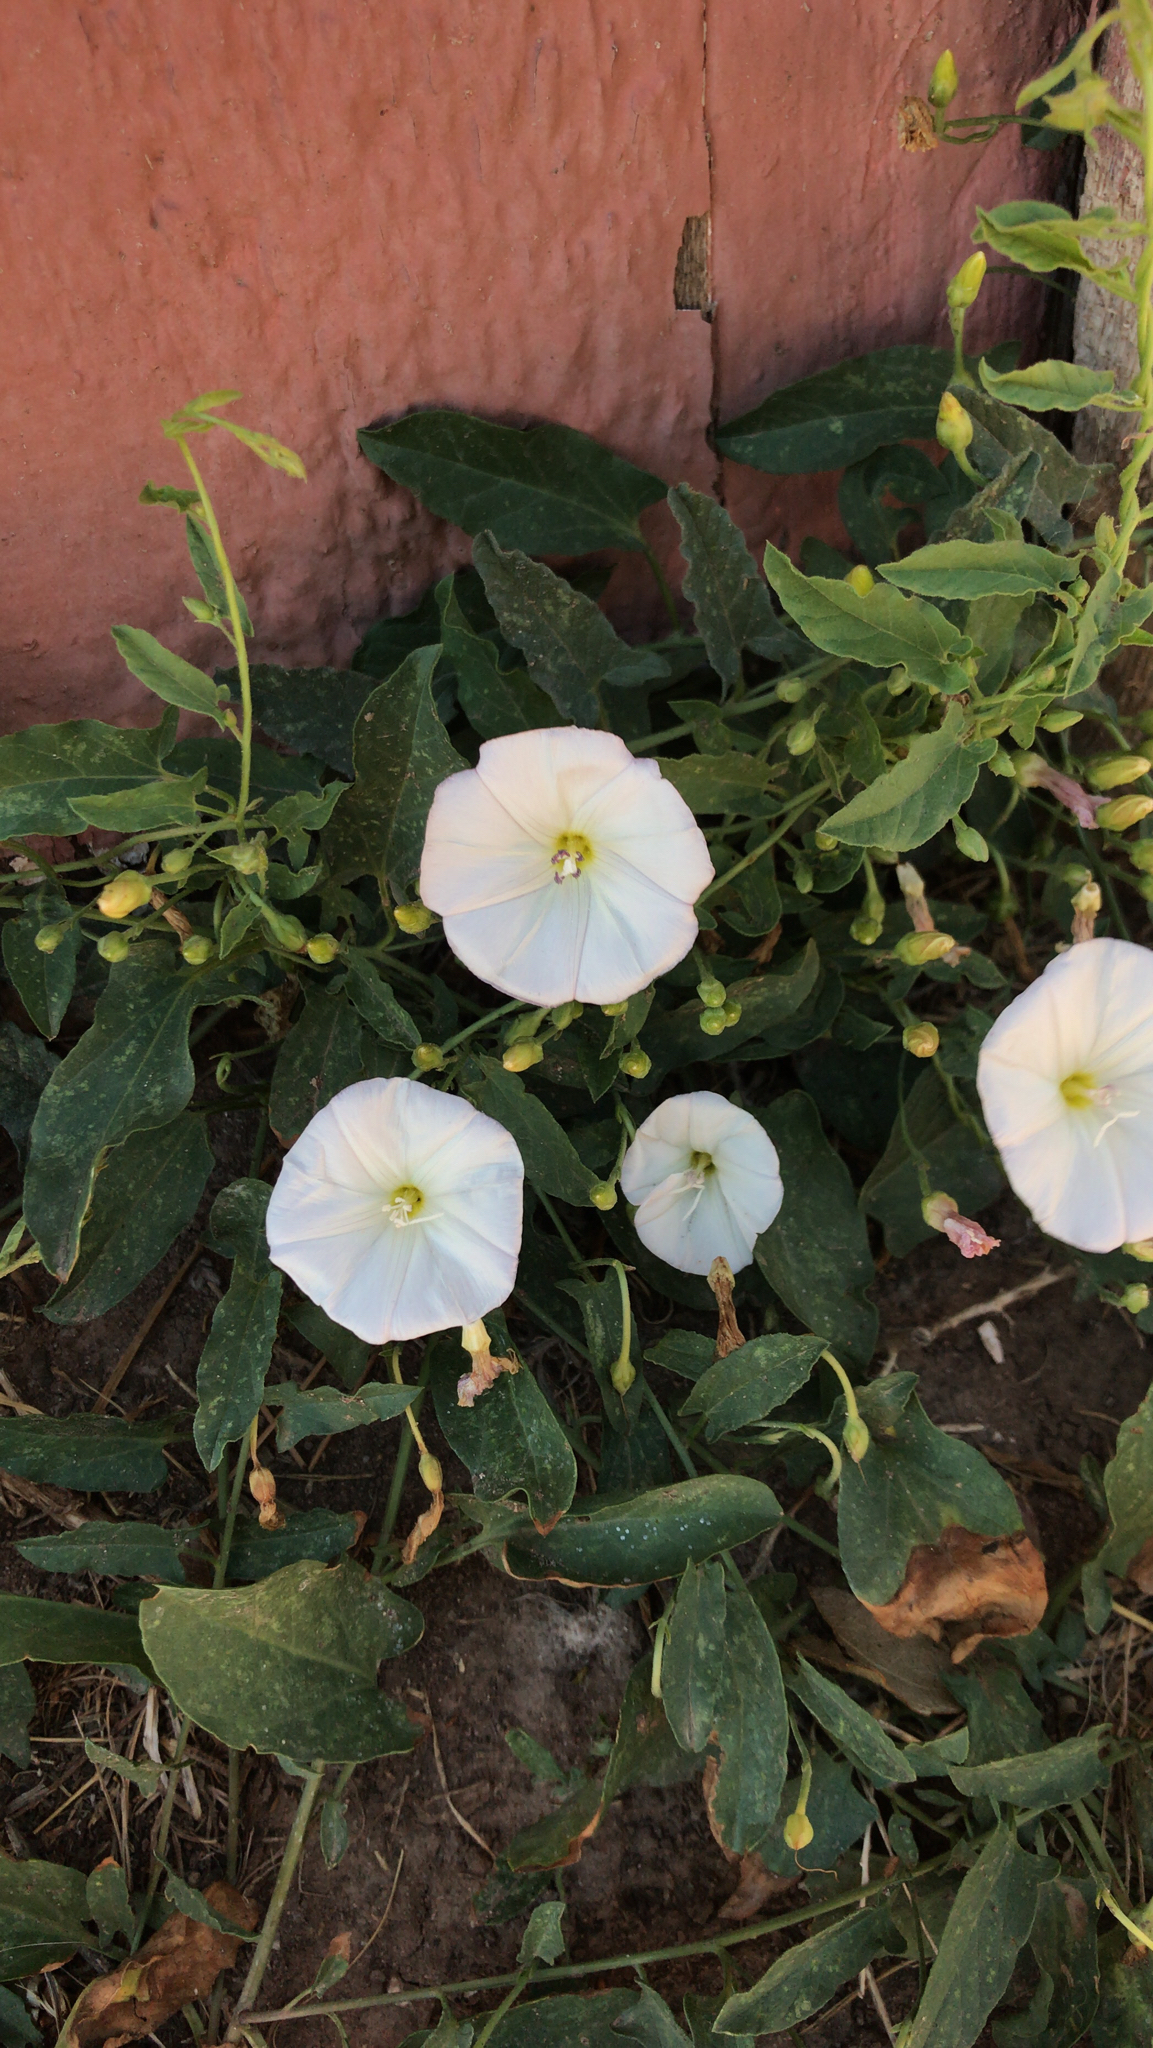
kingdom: Plantae
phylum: Tracheophyta
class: Magnoliopsida
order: Solanales
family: Convolvulaceae
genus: Convolvulus
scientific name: Convolvulus arvensis
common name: Field bindweed
